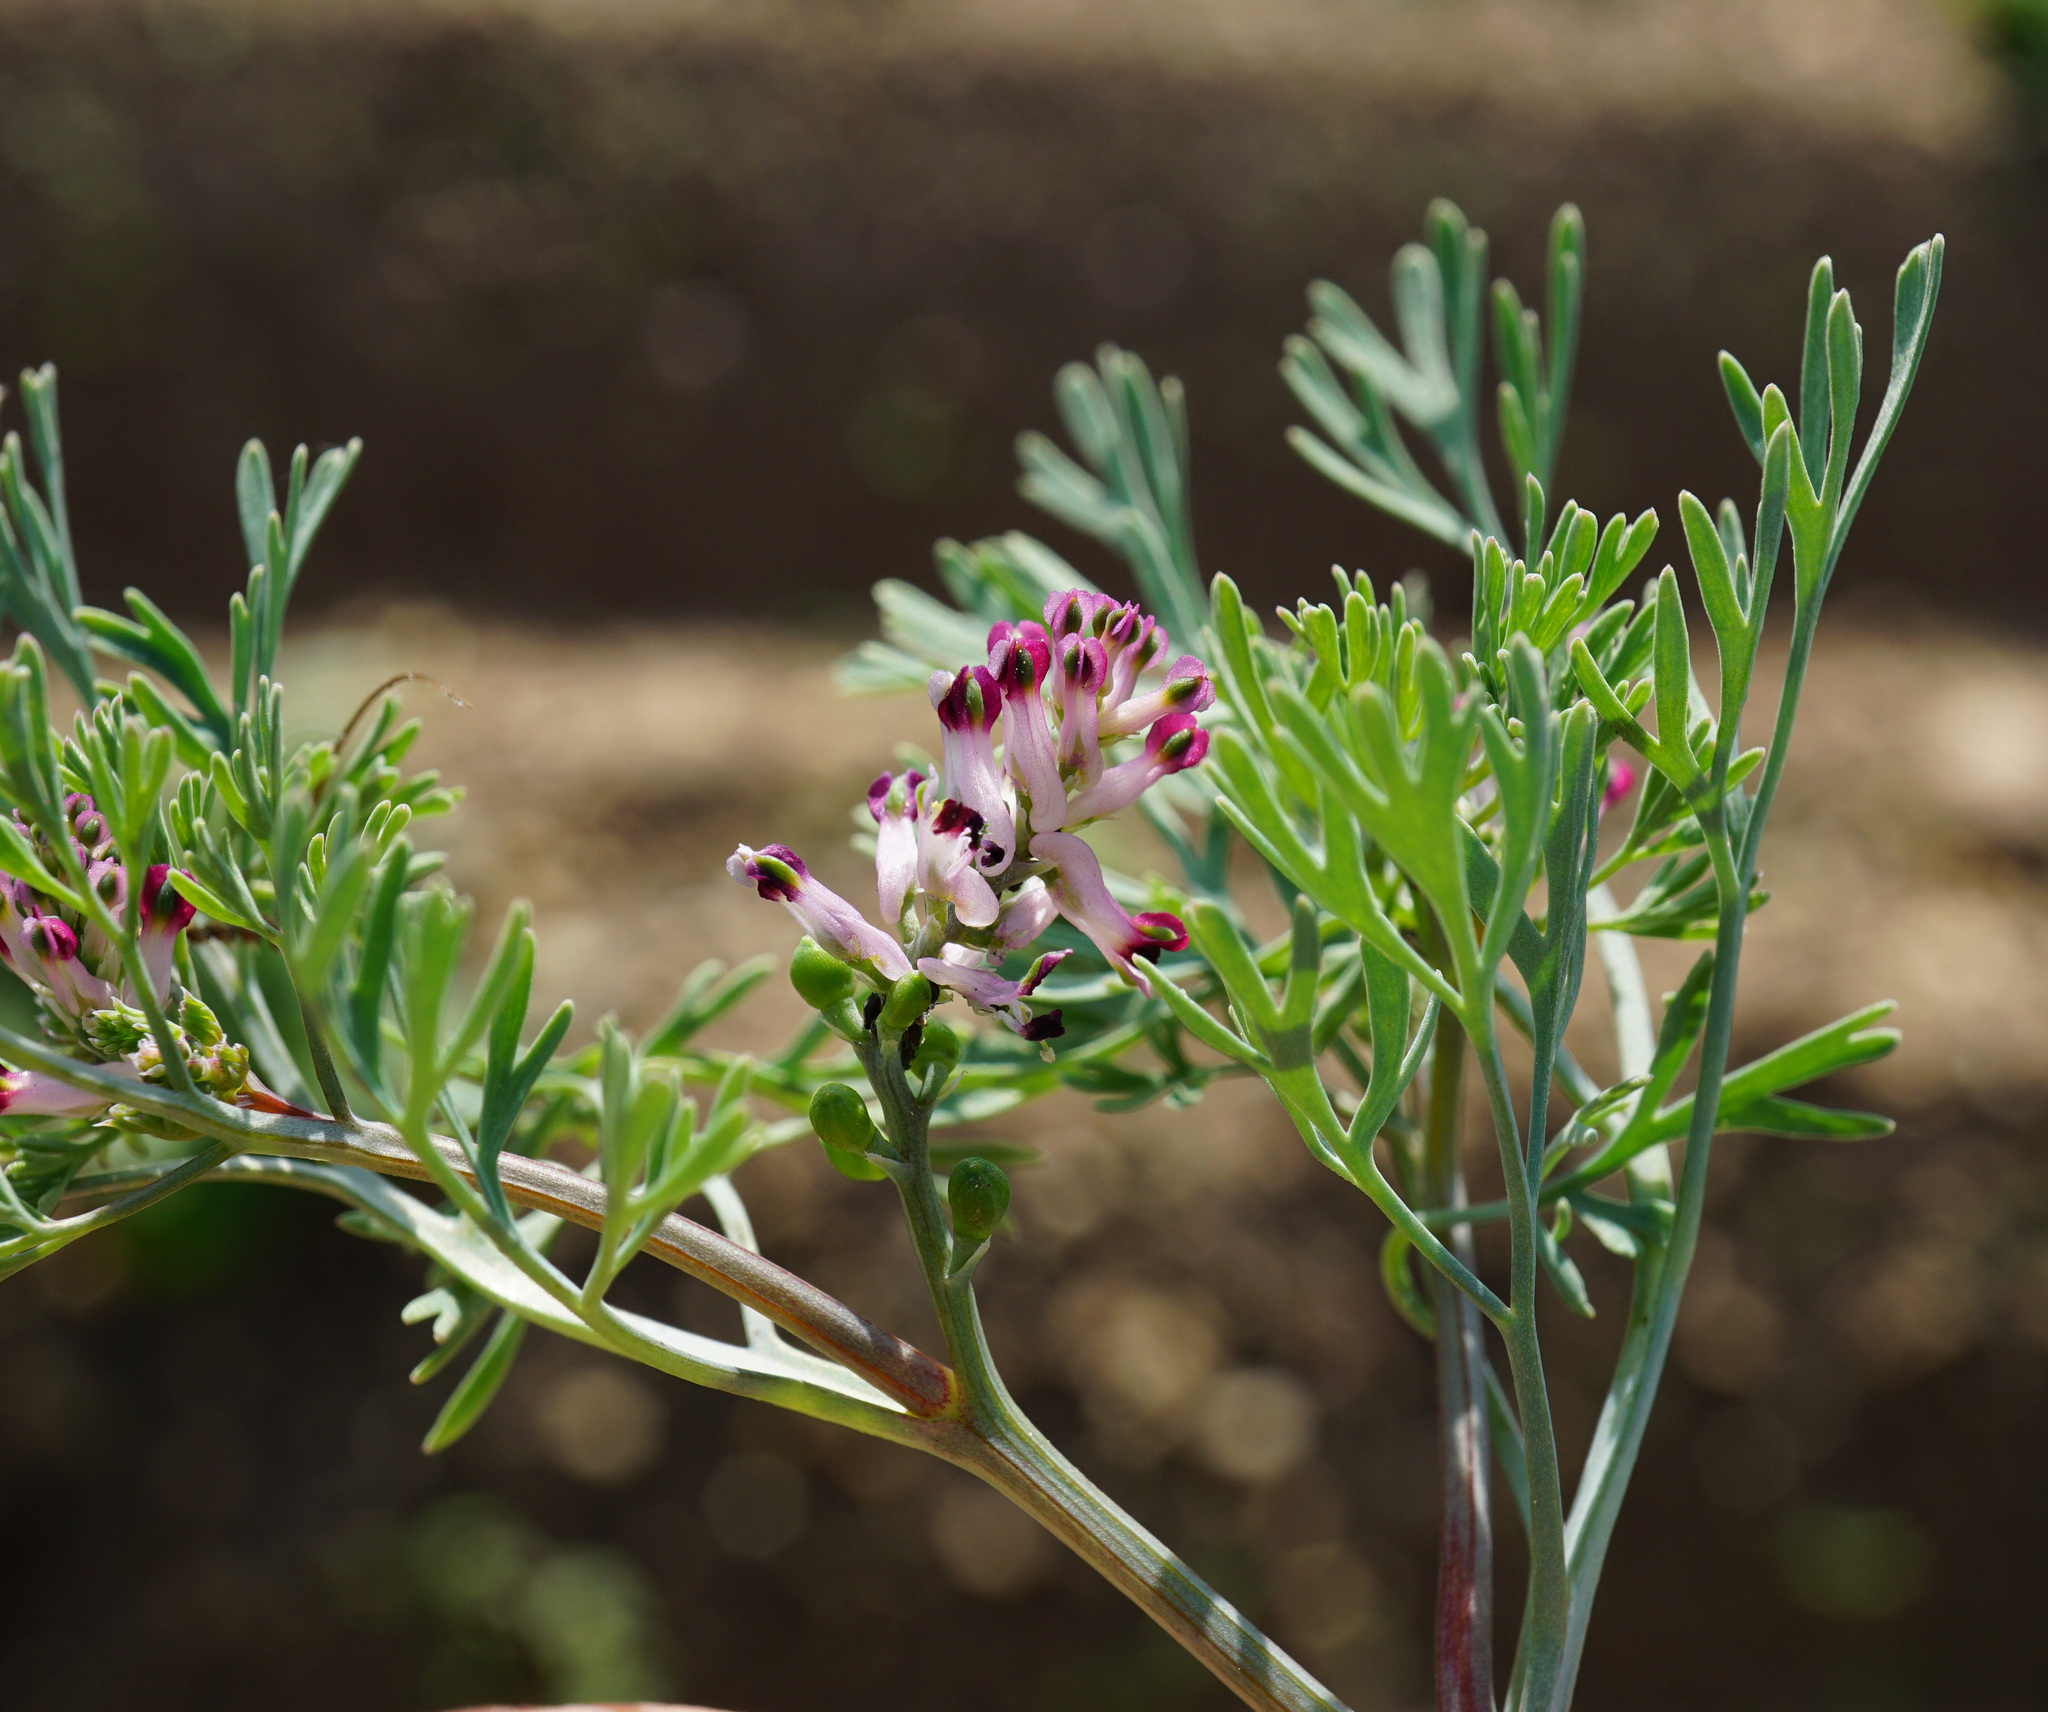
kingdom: Plantae
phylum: Tracheophyta
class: Magnoliopsida
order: Ranunculales
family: Papaveraceae
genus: Fumaria
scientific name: Fumaria vaillantii
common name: Few-flowered fumitory
